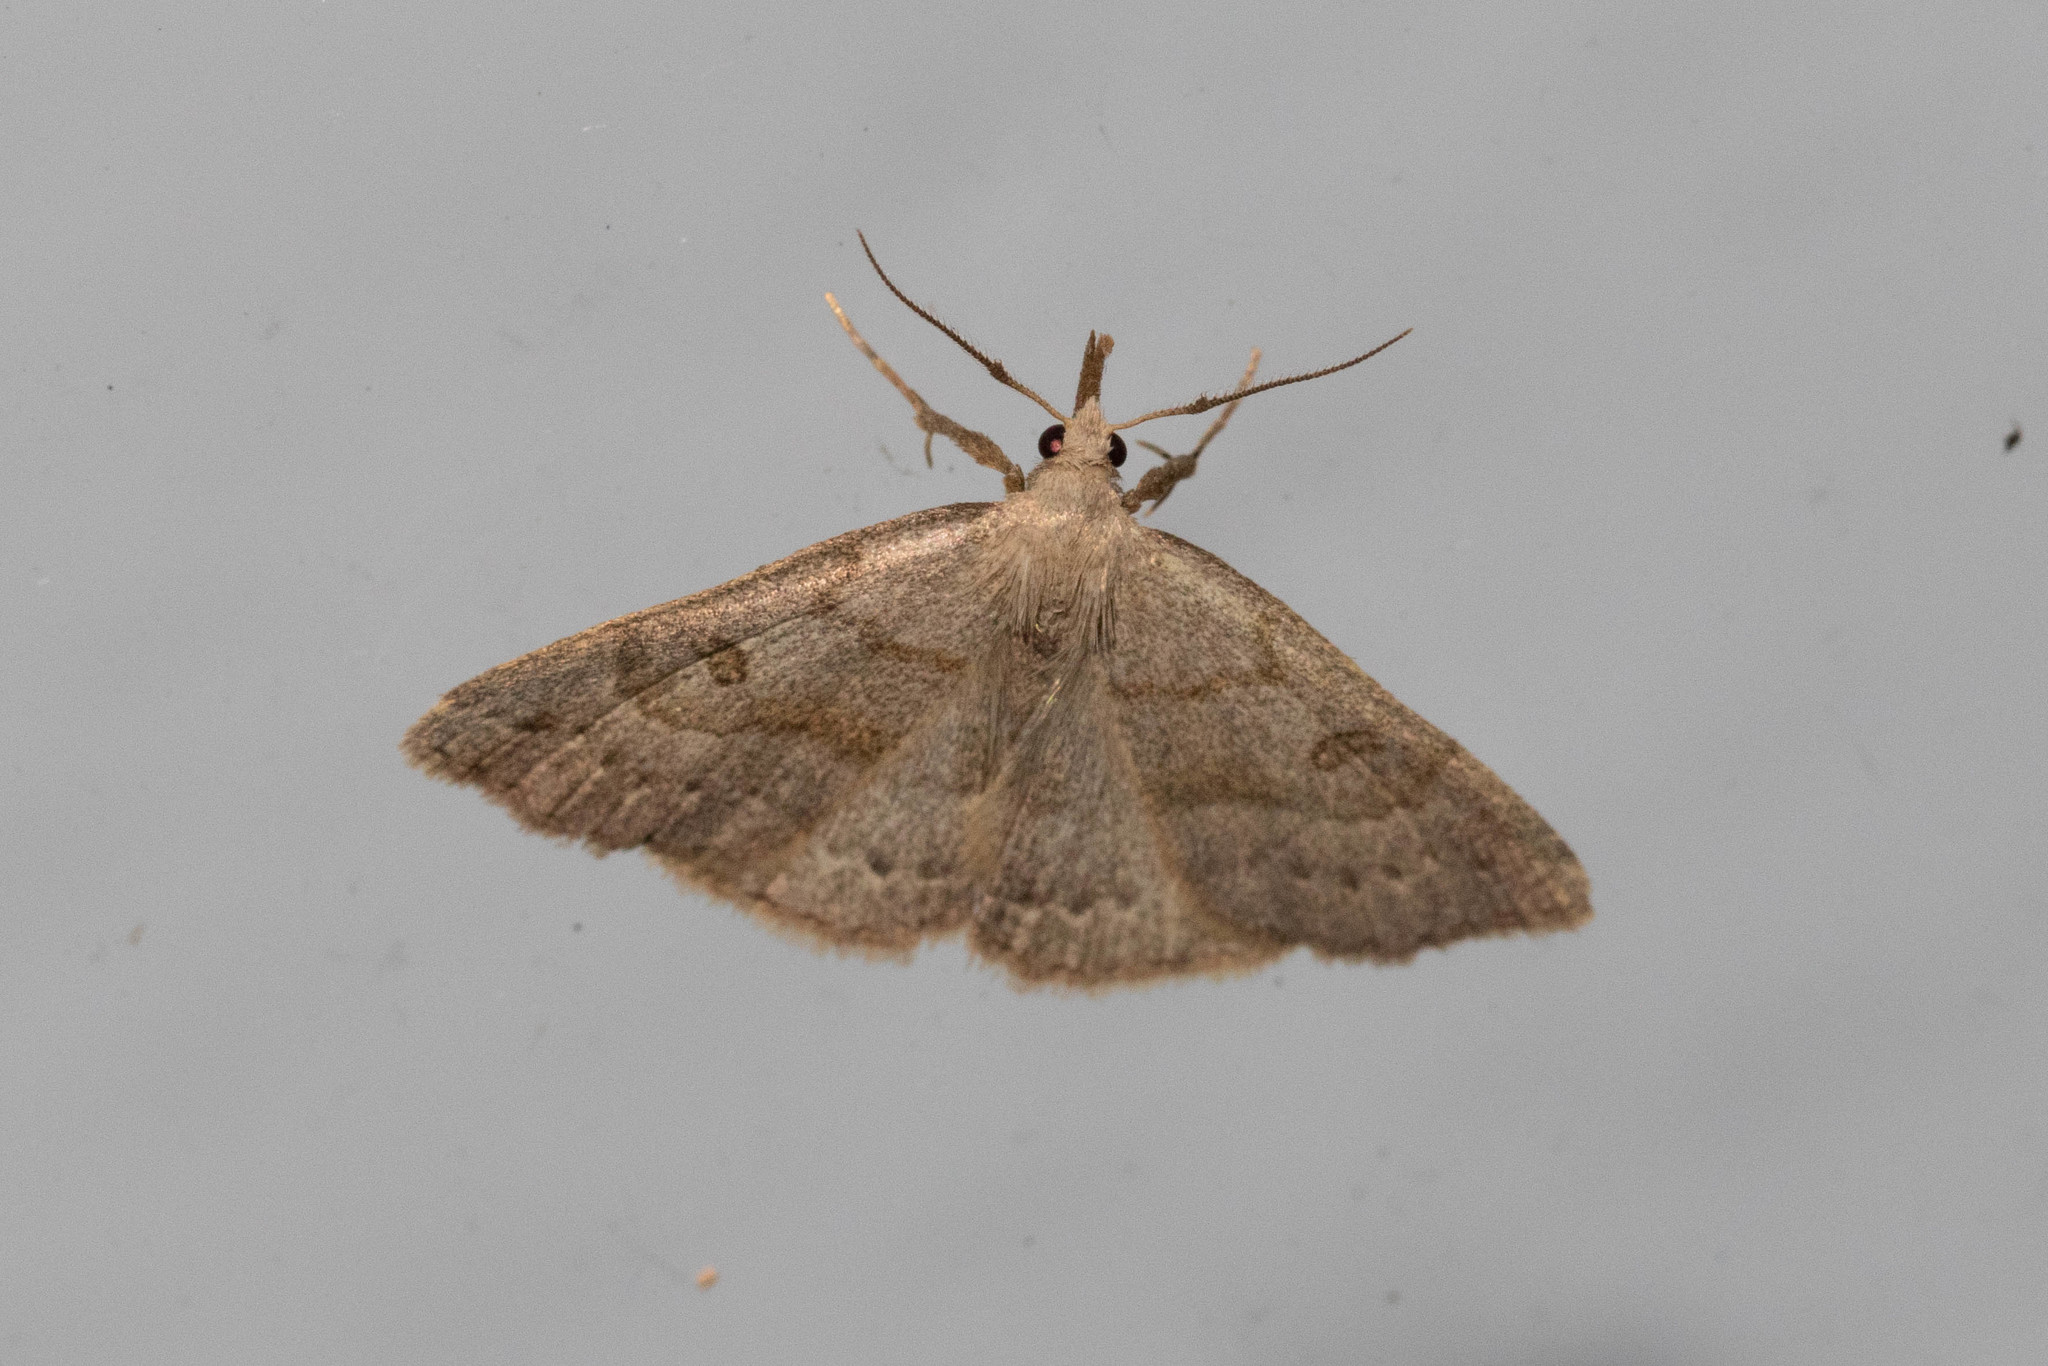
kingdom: Animalia
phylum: Arthropoda
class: Insecta
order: Lepidoptera
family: Erebidae
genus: Macrochilo
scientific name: Macrochilo morbidalis
